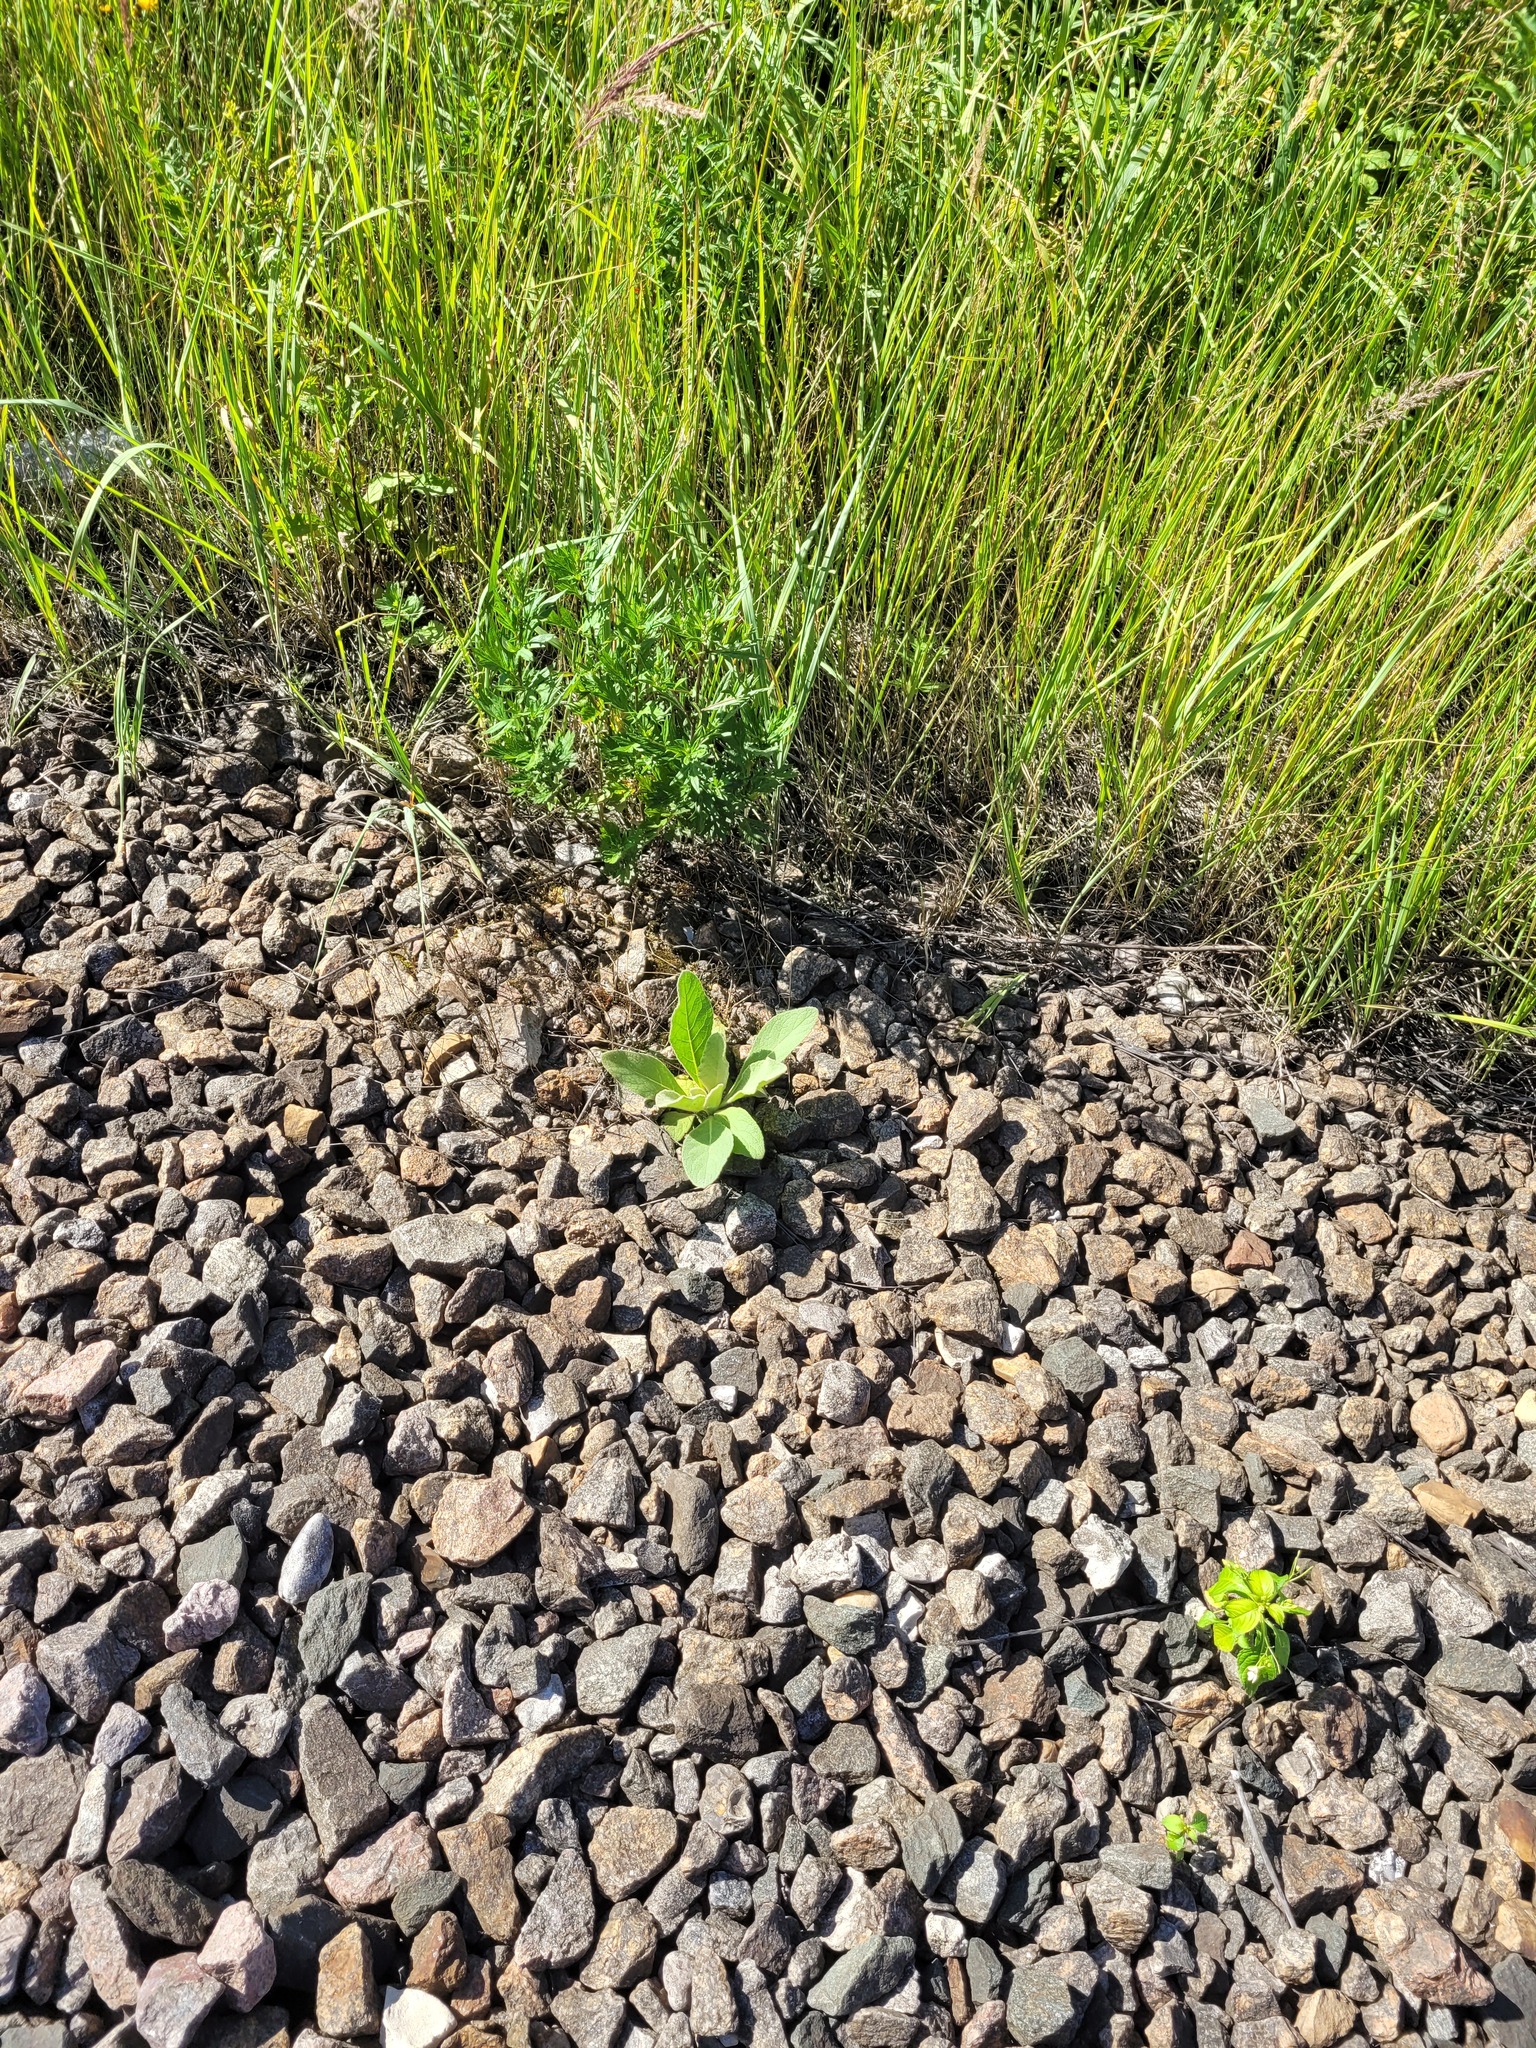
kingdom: Plantae
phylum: Tracheophyta
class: Magnoliopsida
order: Lamiales
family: Scrophulariaceae
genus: Verbascum
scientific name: Verbascum thapsus
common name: Common mullein
